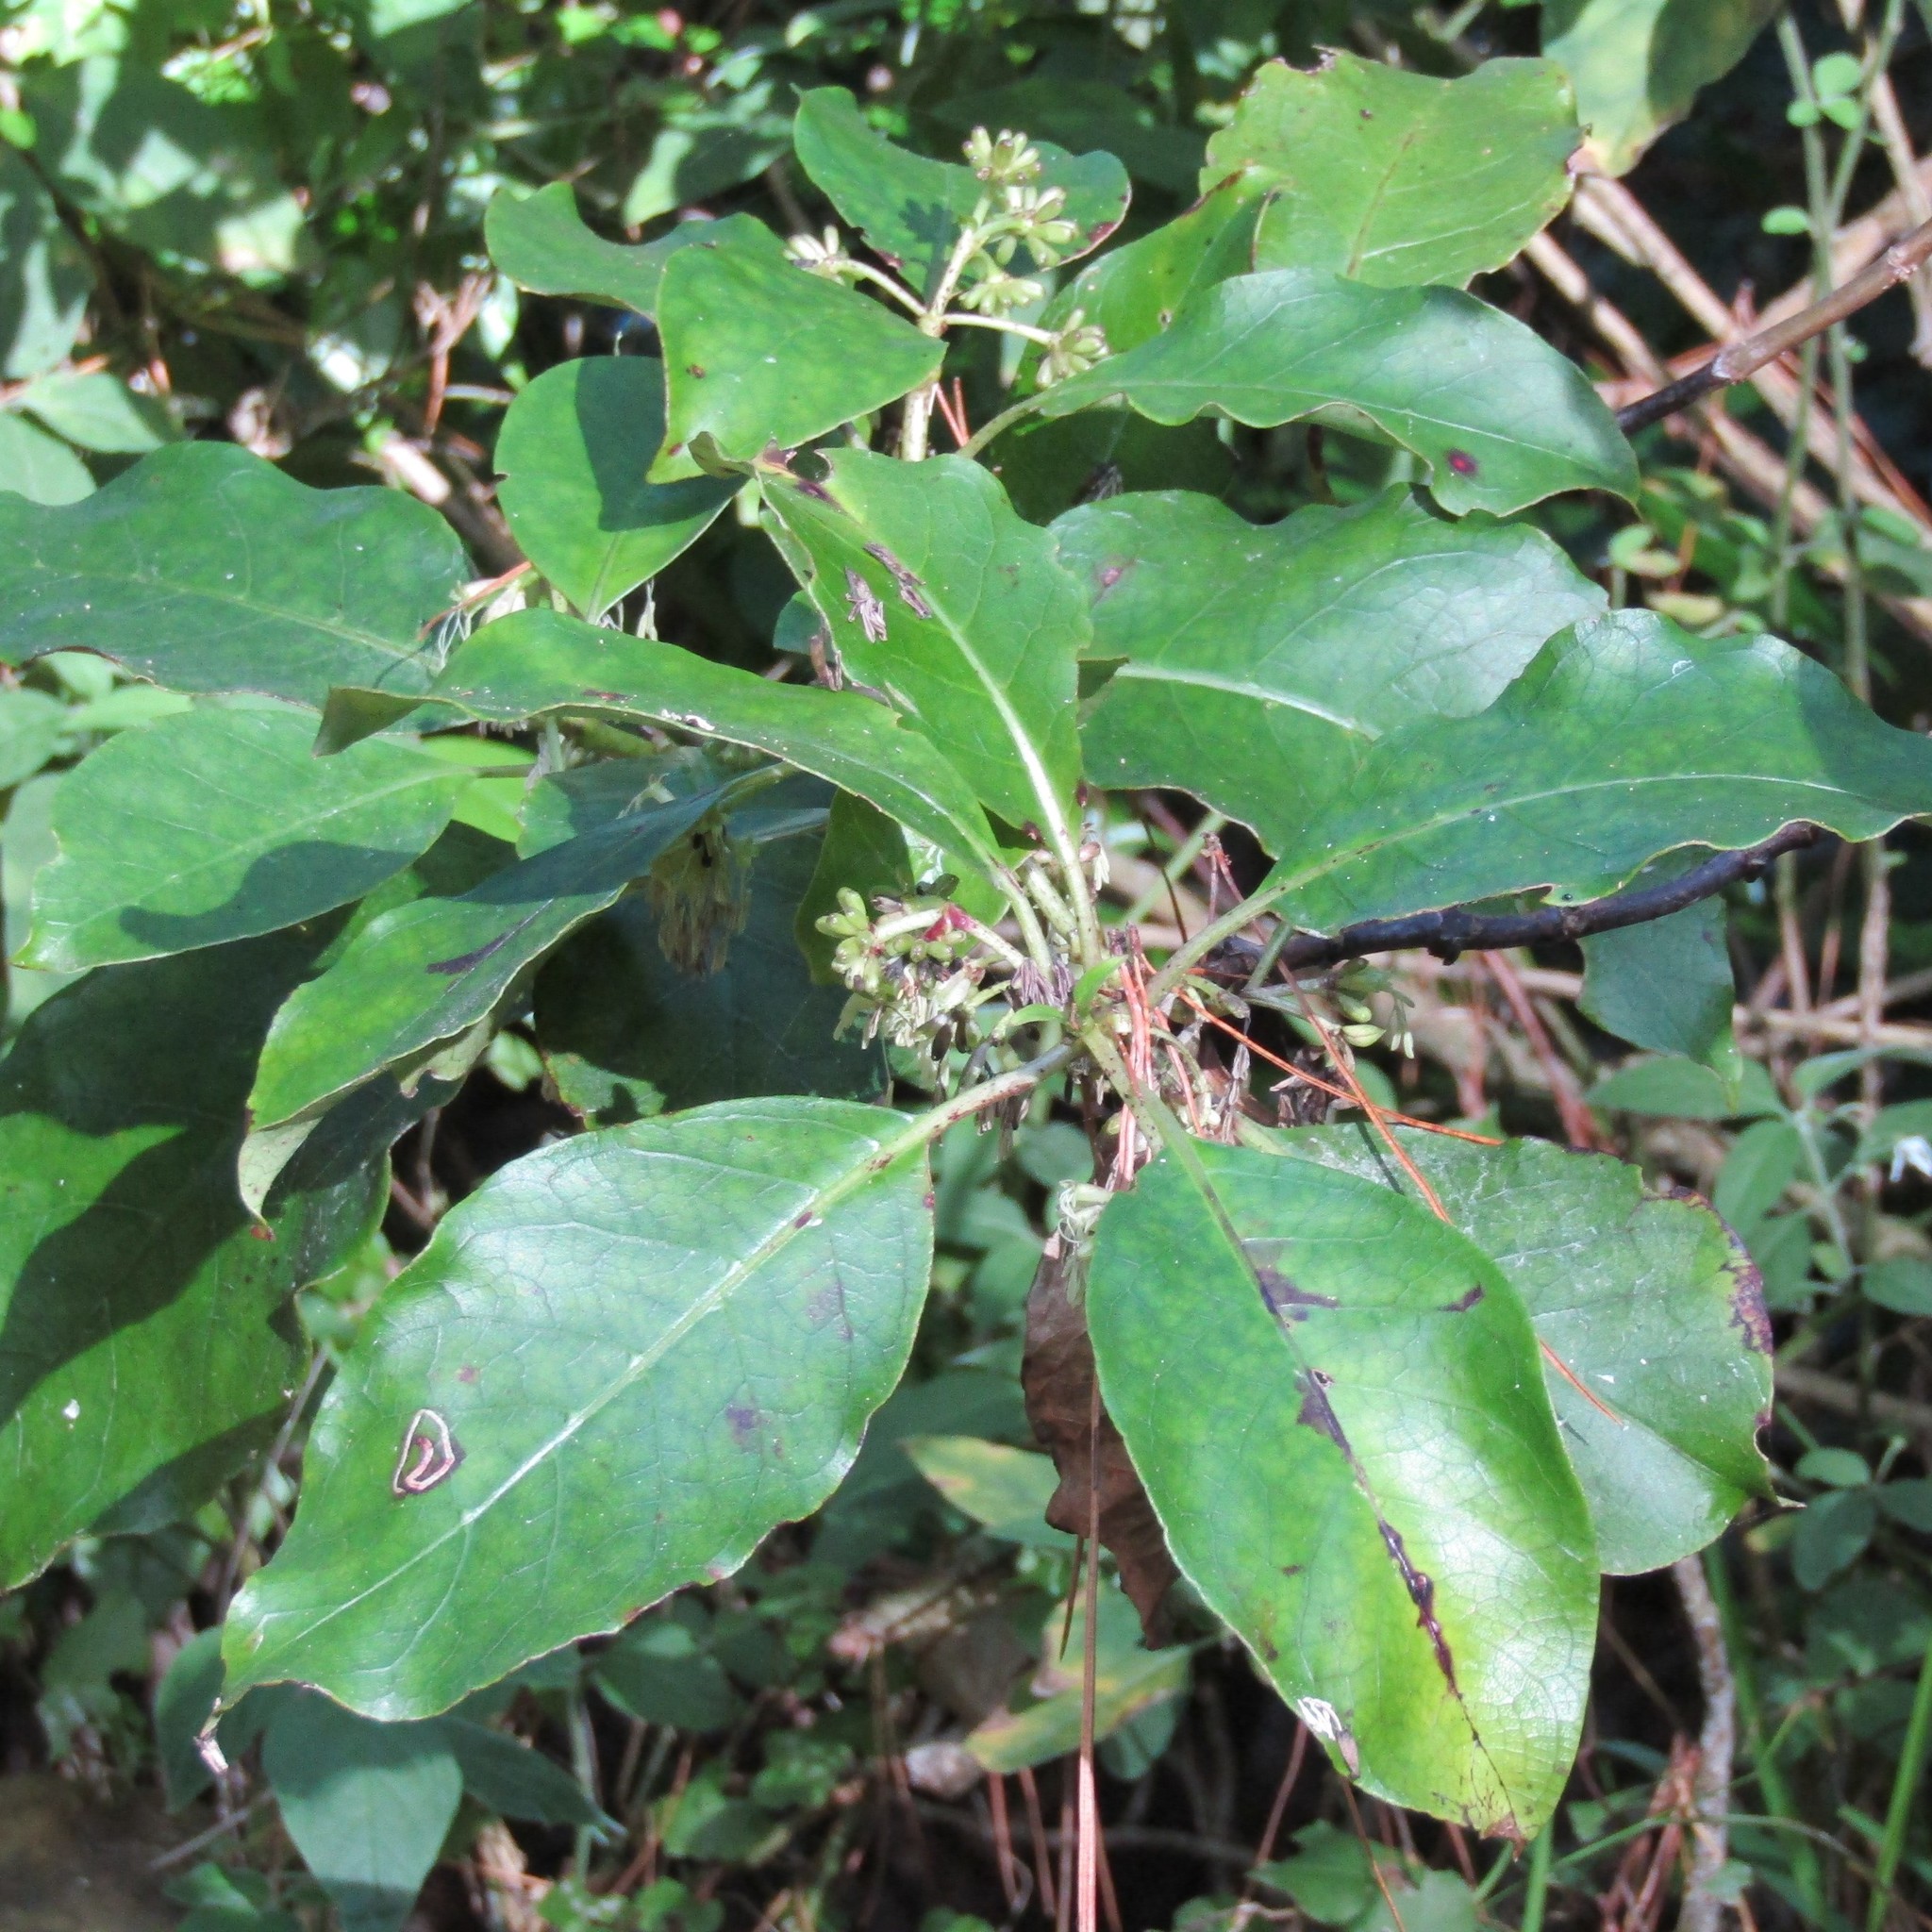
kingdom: Plantae
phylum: Tracheophyta
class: Magnoliopsida
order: Gentianales
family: Rubiaceae
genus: Coprosma
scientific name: Coprosma autumnalis
